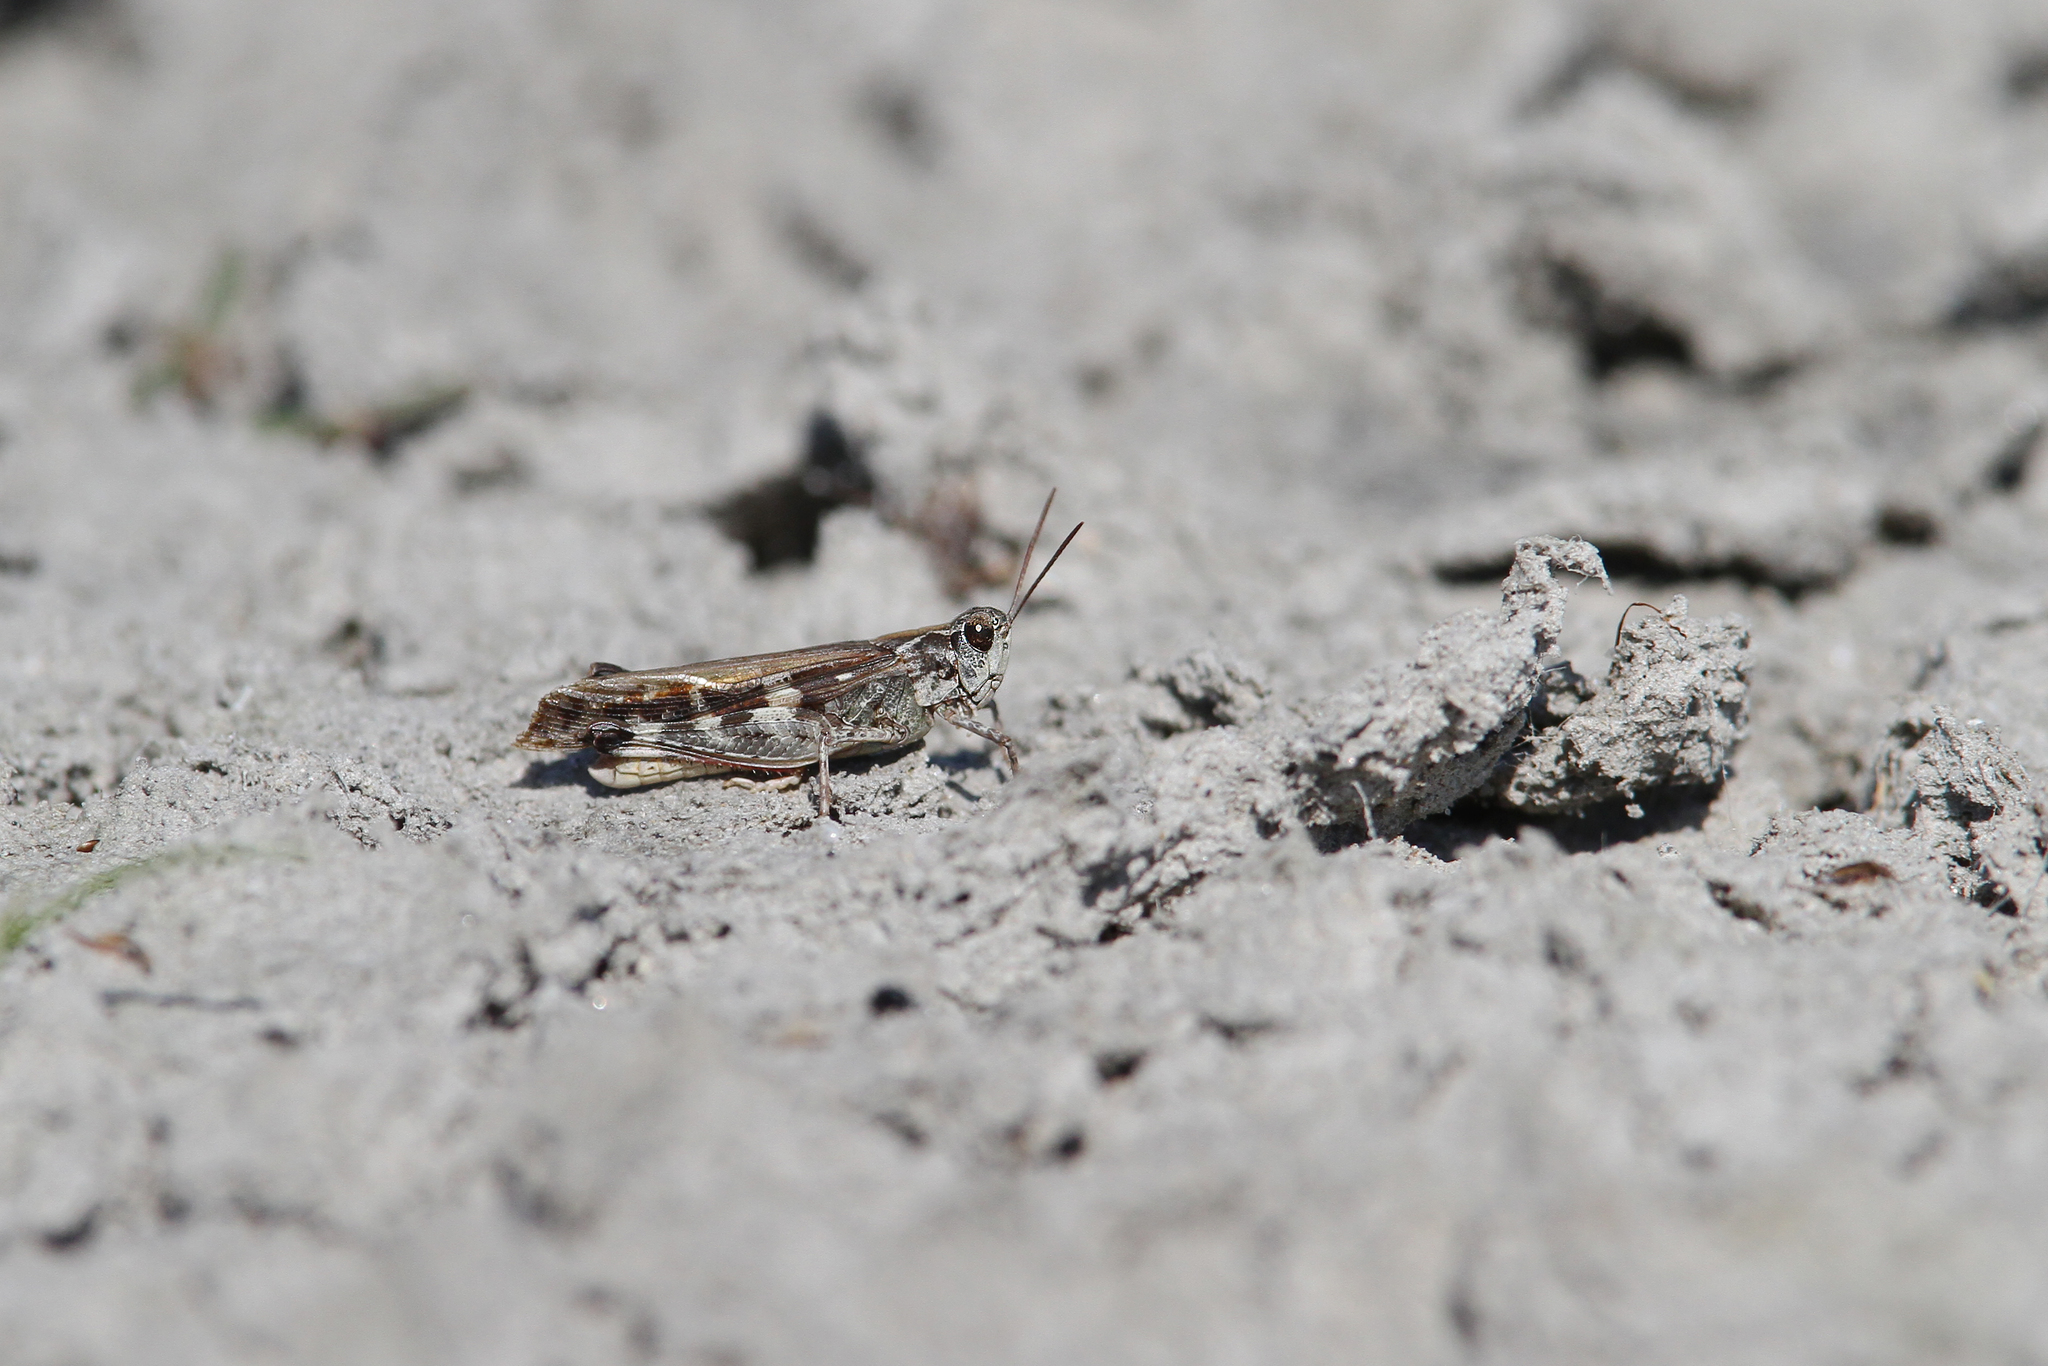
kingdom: Animalia
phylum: Arthropoda
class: Insecta
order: Orthoptera
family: Acrididae
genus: Aiolopus
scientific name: Aiolopus thalassinus
